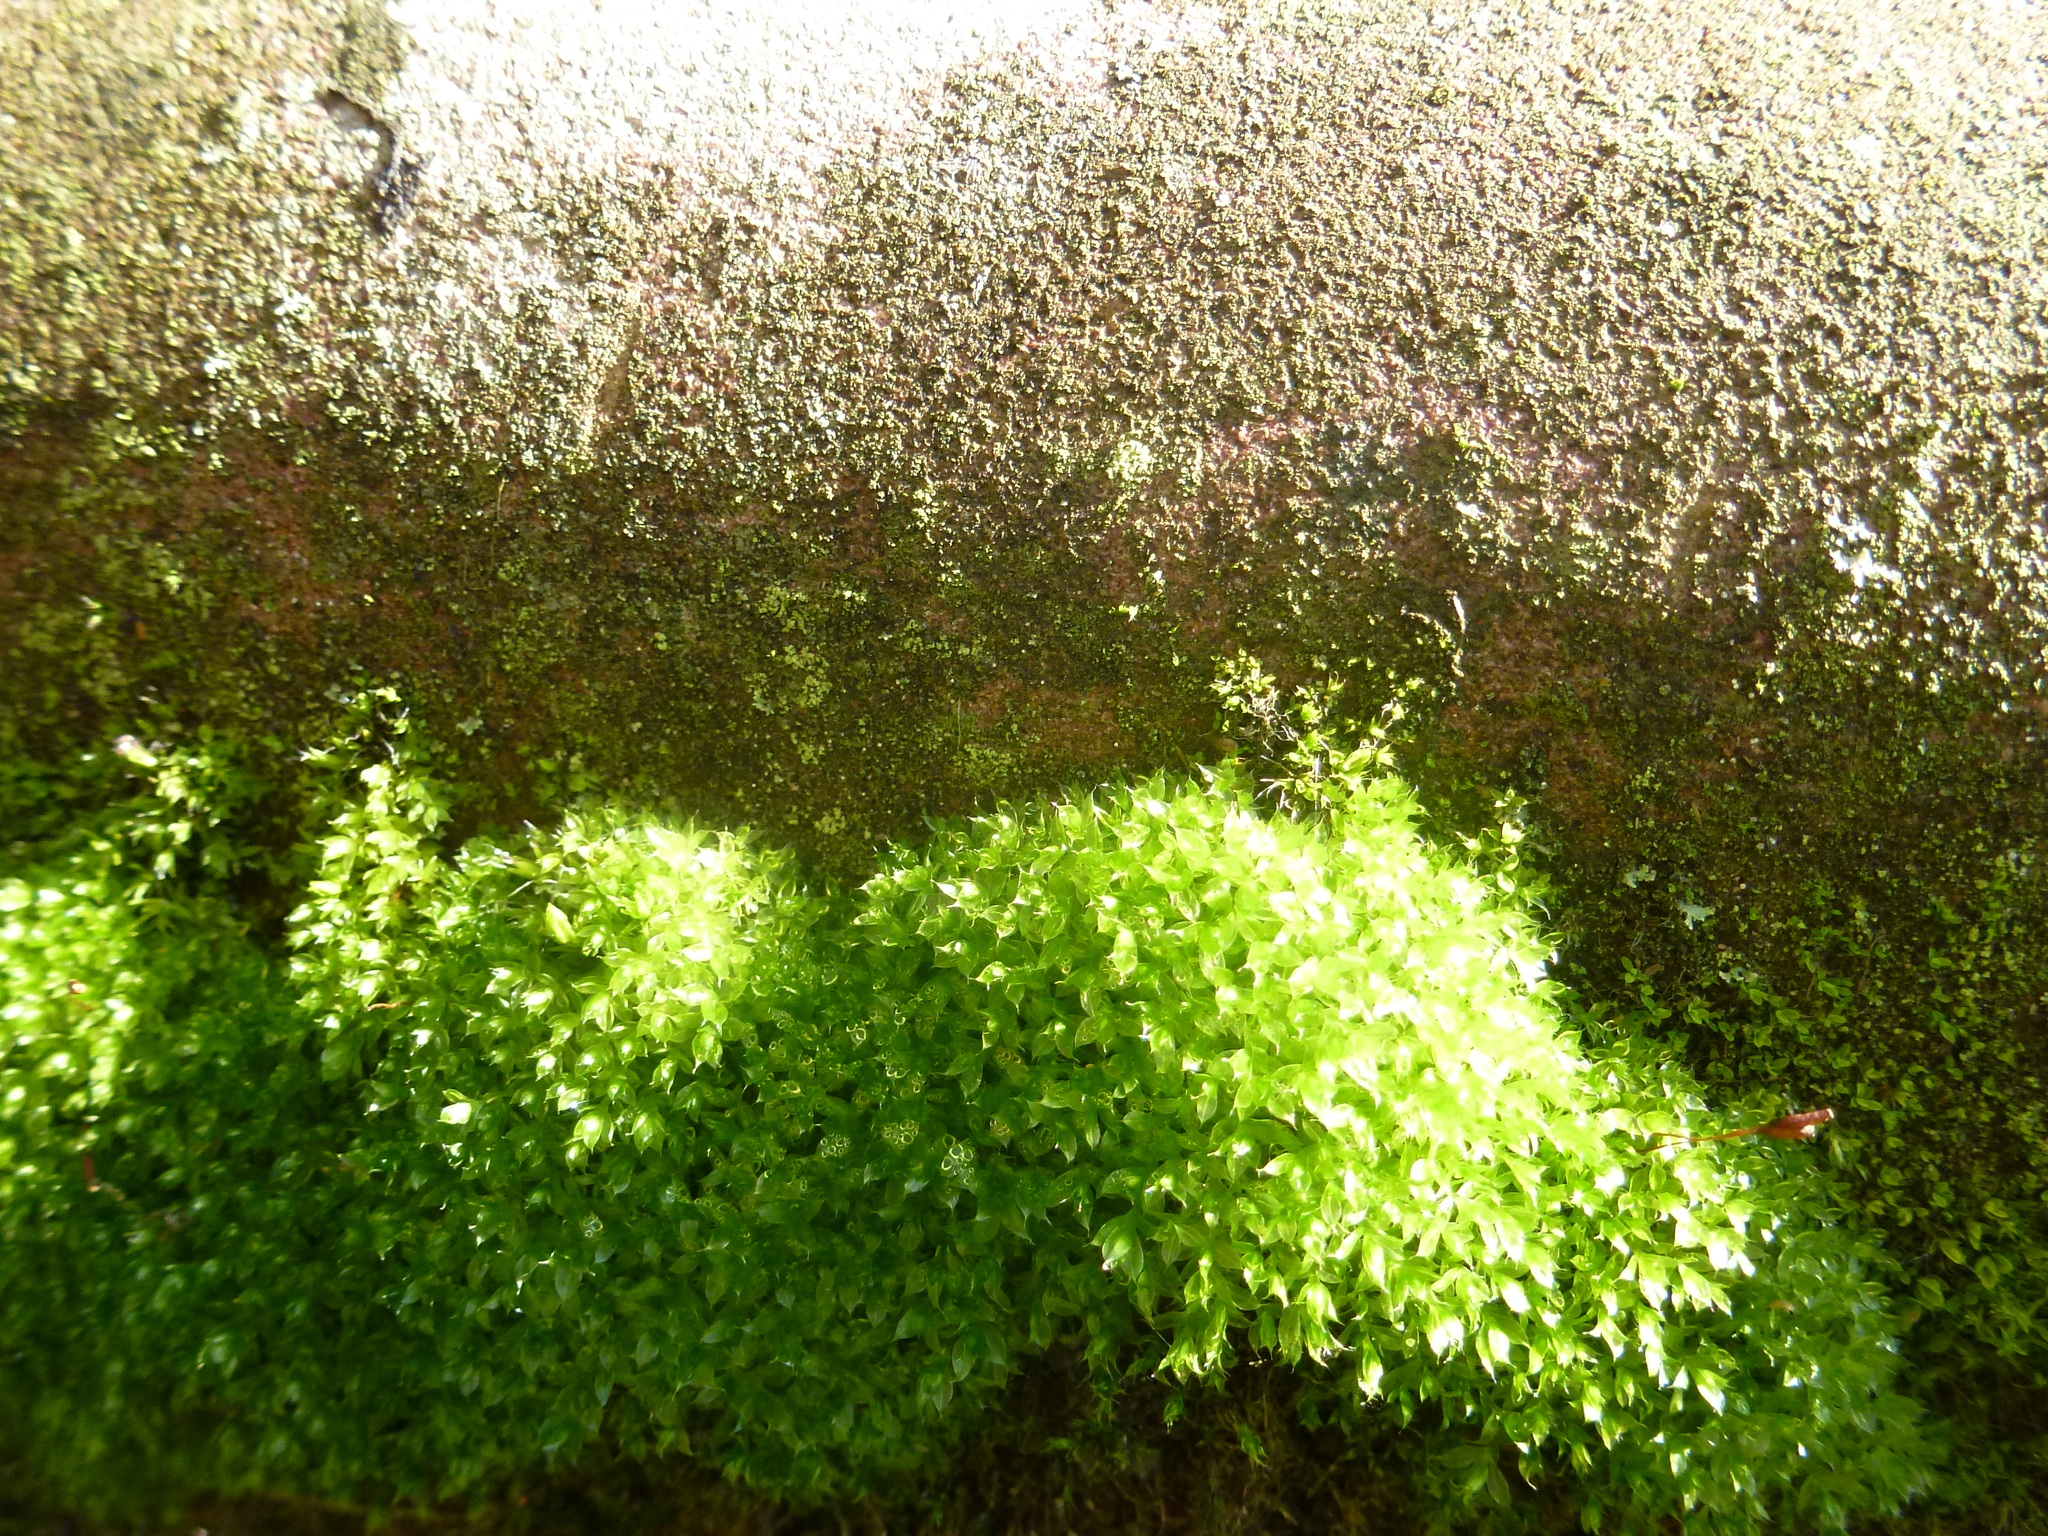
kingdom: Plantae
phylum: Bryophyta
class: Bryopsida
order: Bryales
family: Bryaceae
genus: Rosulabryum
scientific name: Rosulabryum capillare
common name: Capillary thread-moss
